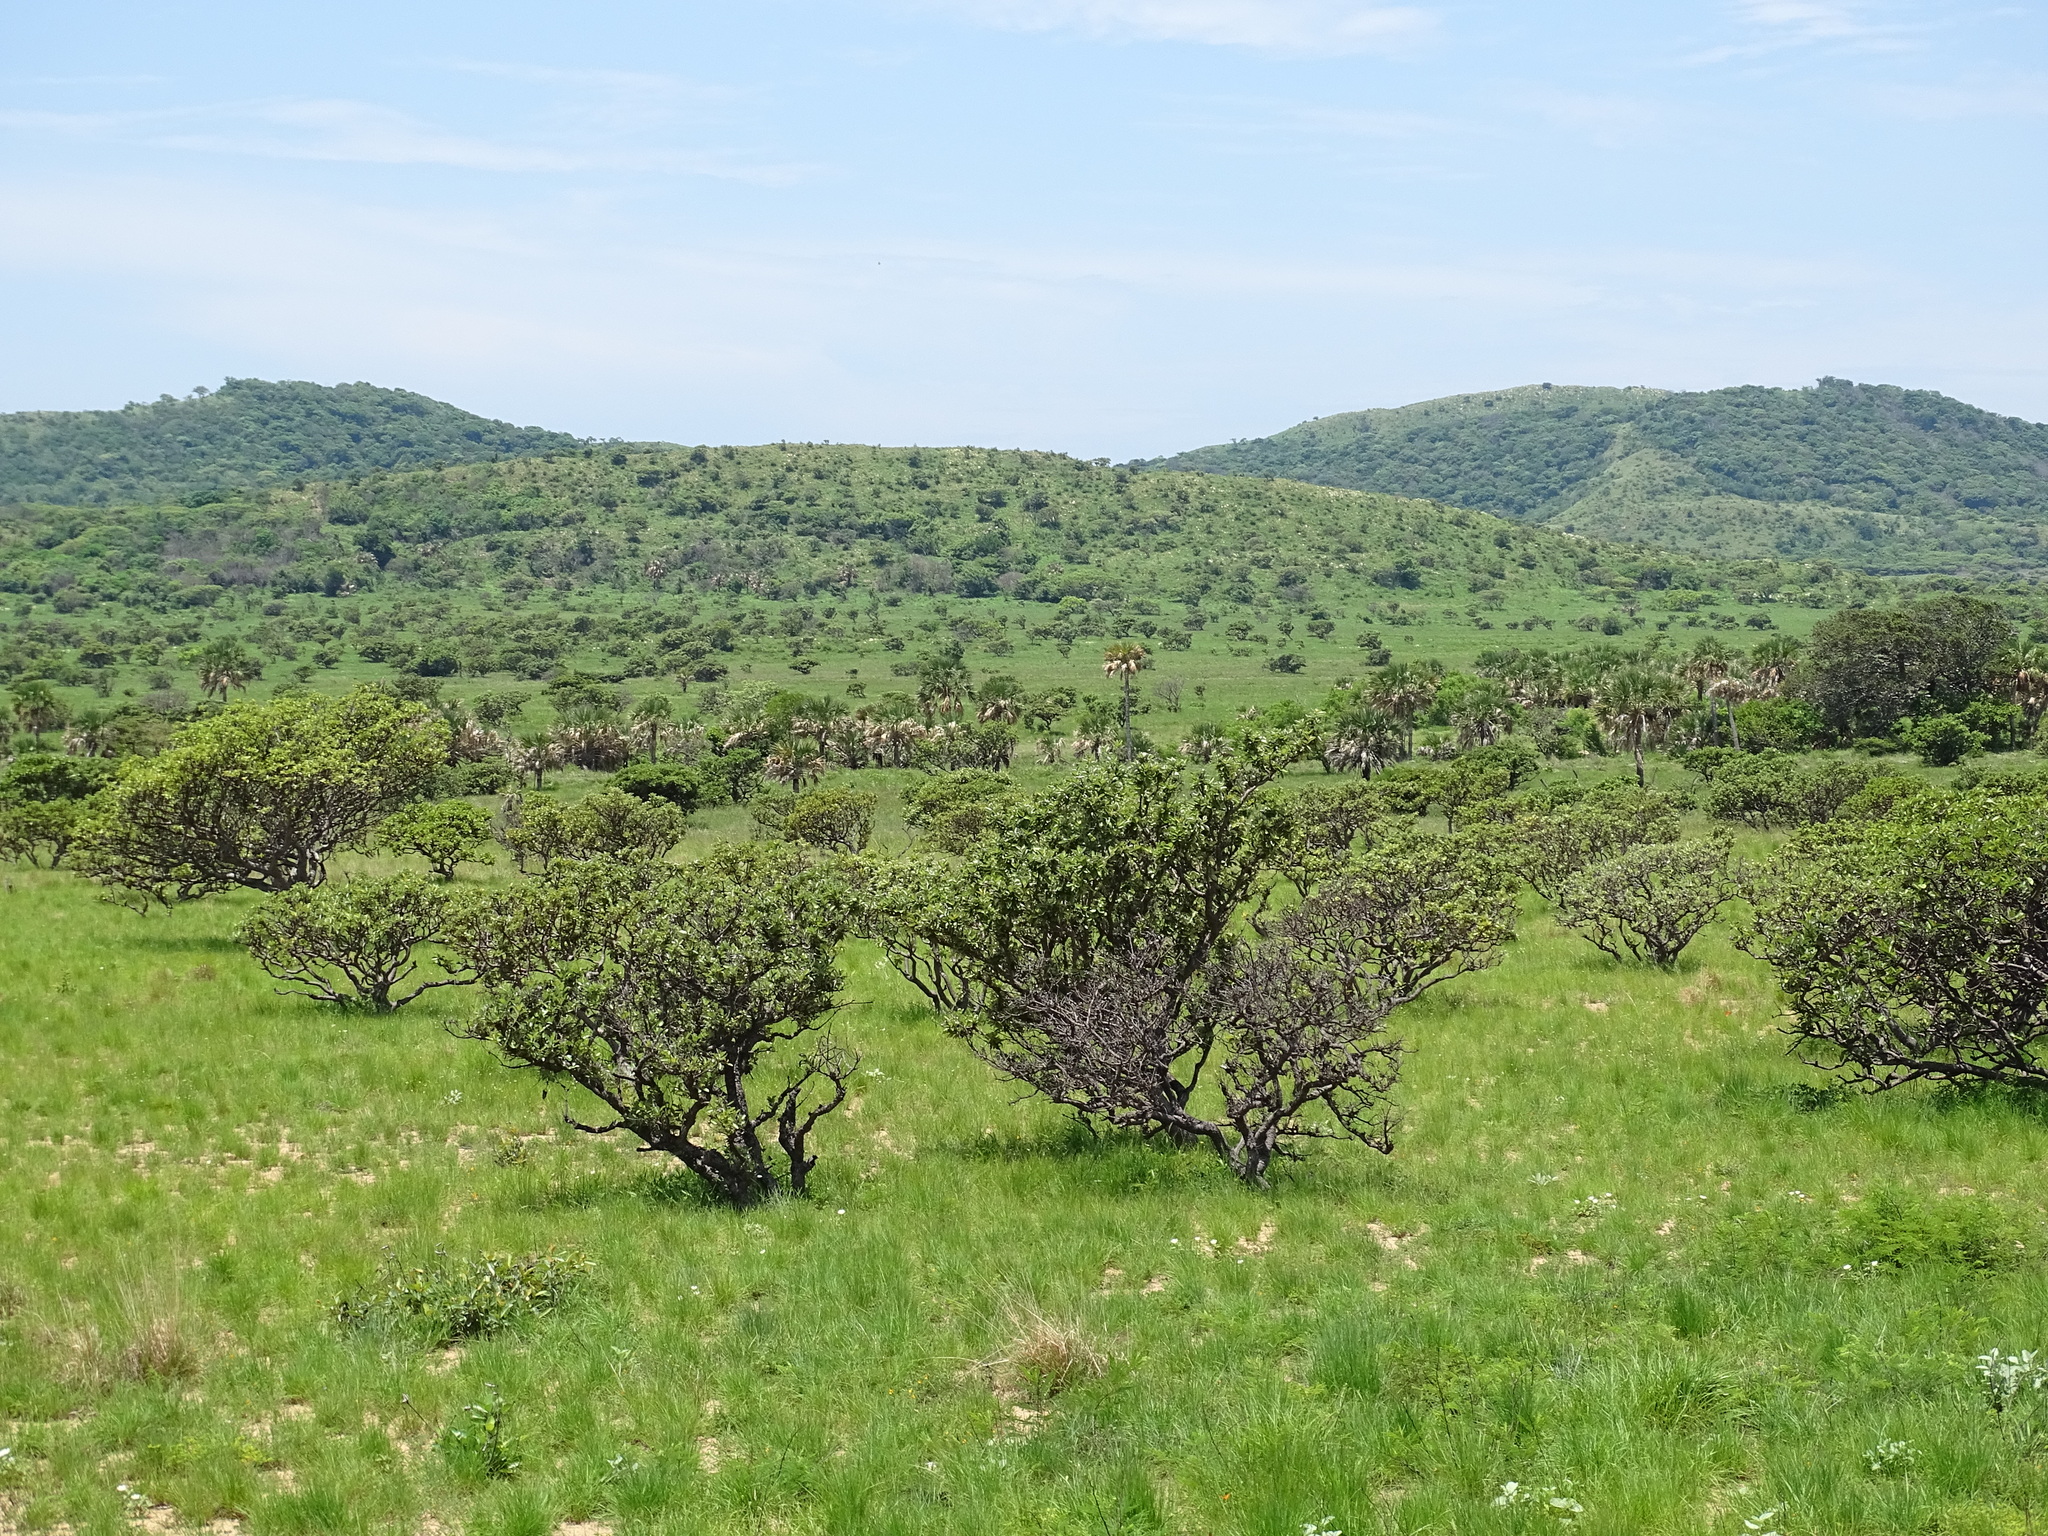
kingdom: Plantae
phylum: Tracheophyta
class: Magnoliopsida
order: Malpighiales
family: Malpighiaceae
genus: Byrsonima
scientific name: Byrsonima crassifolia
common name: Golden spoon
